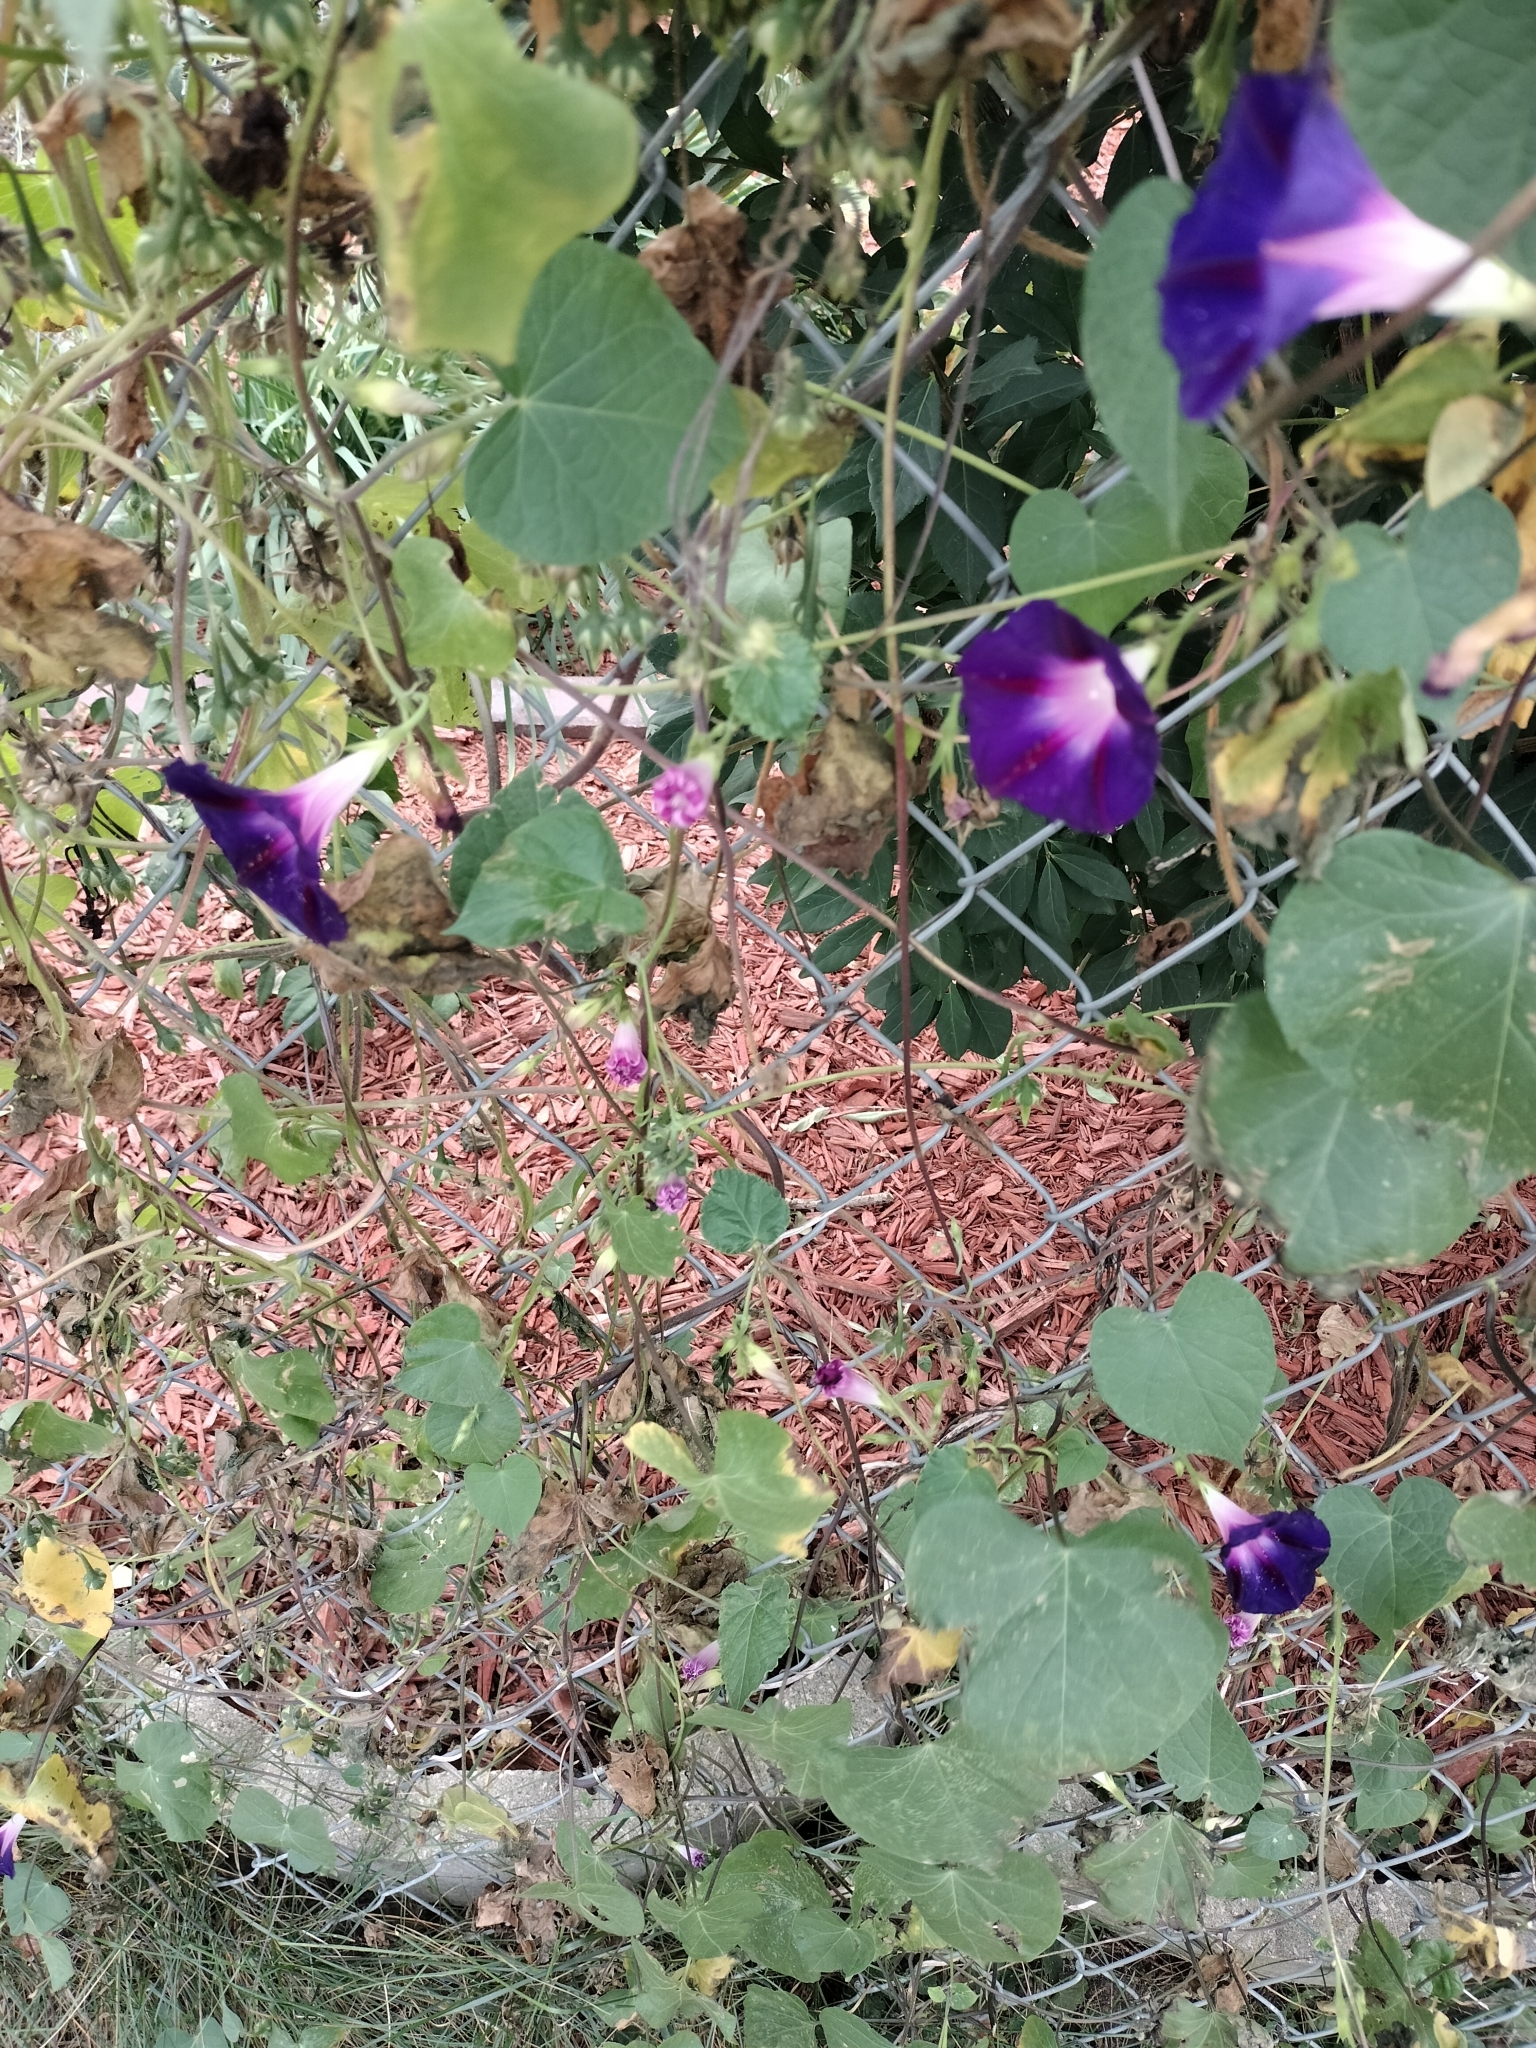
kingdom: Plantae
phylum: Tracheophyta
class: Magnoliopsida
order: Solanales
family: Convolvulaceae
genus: Ipomoea
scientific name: Ipomoea purpurea
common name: Common morning-glory
